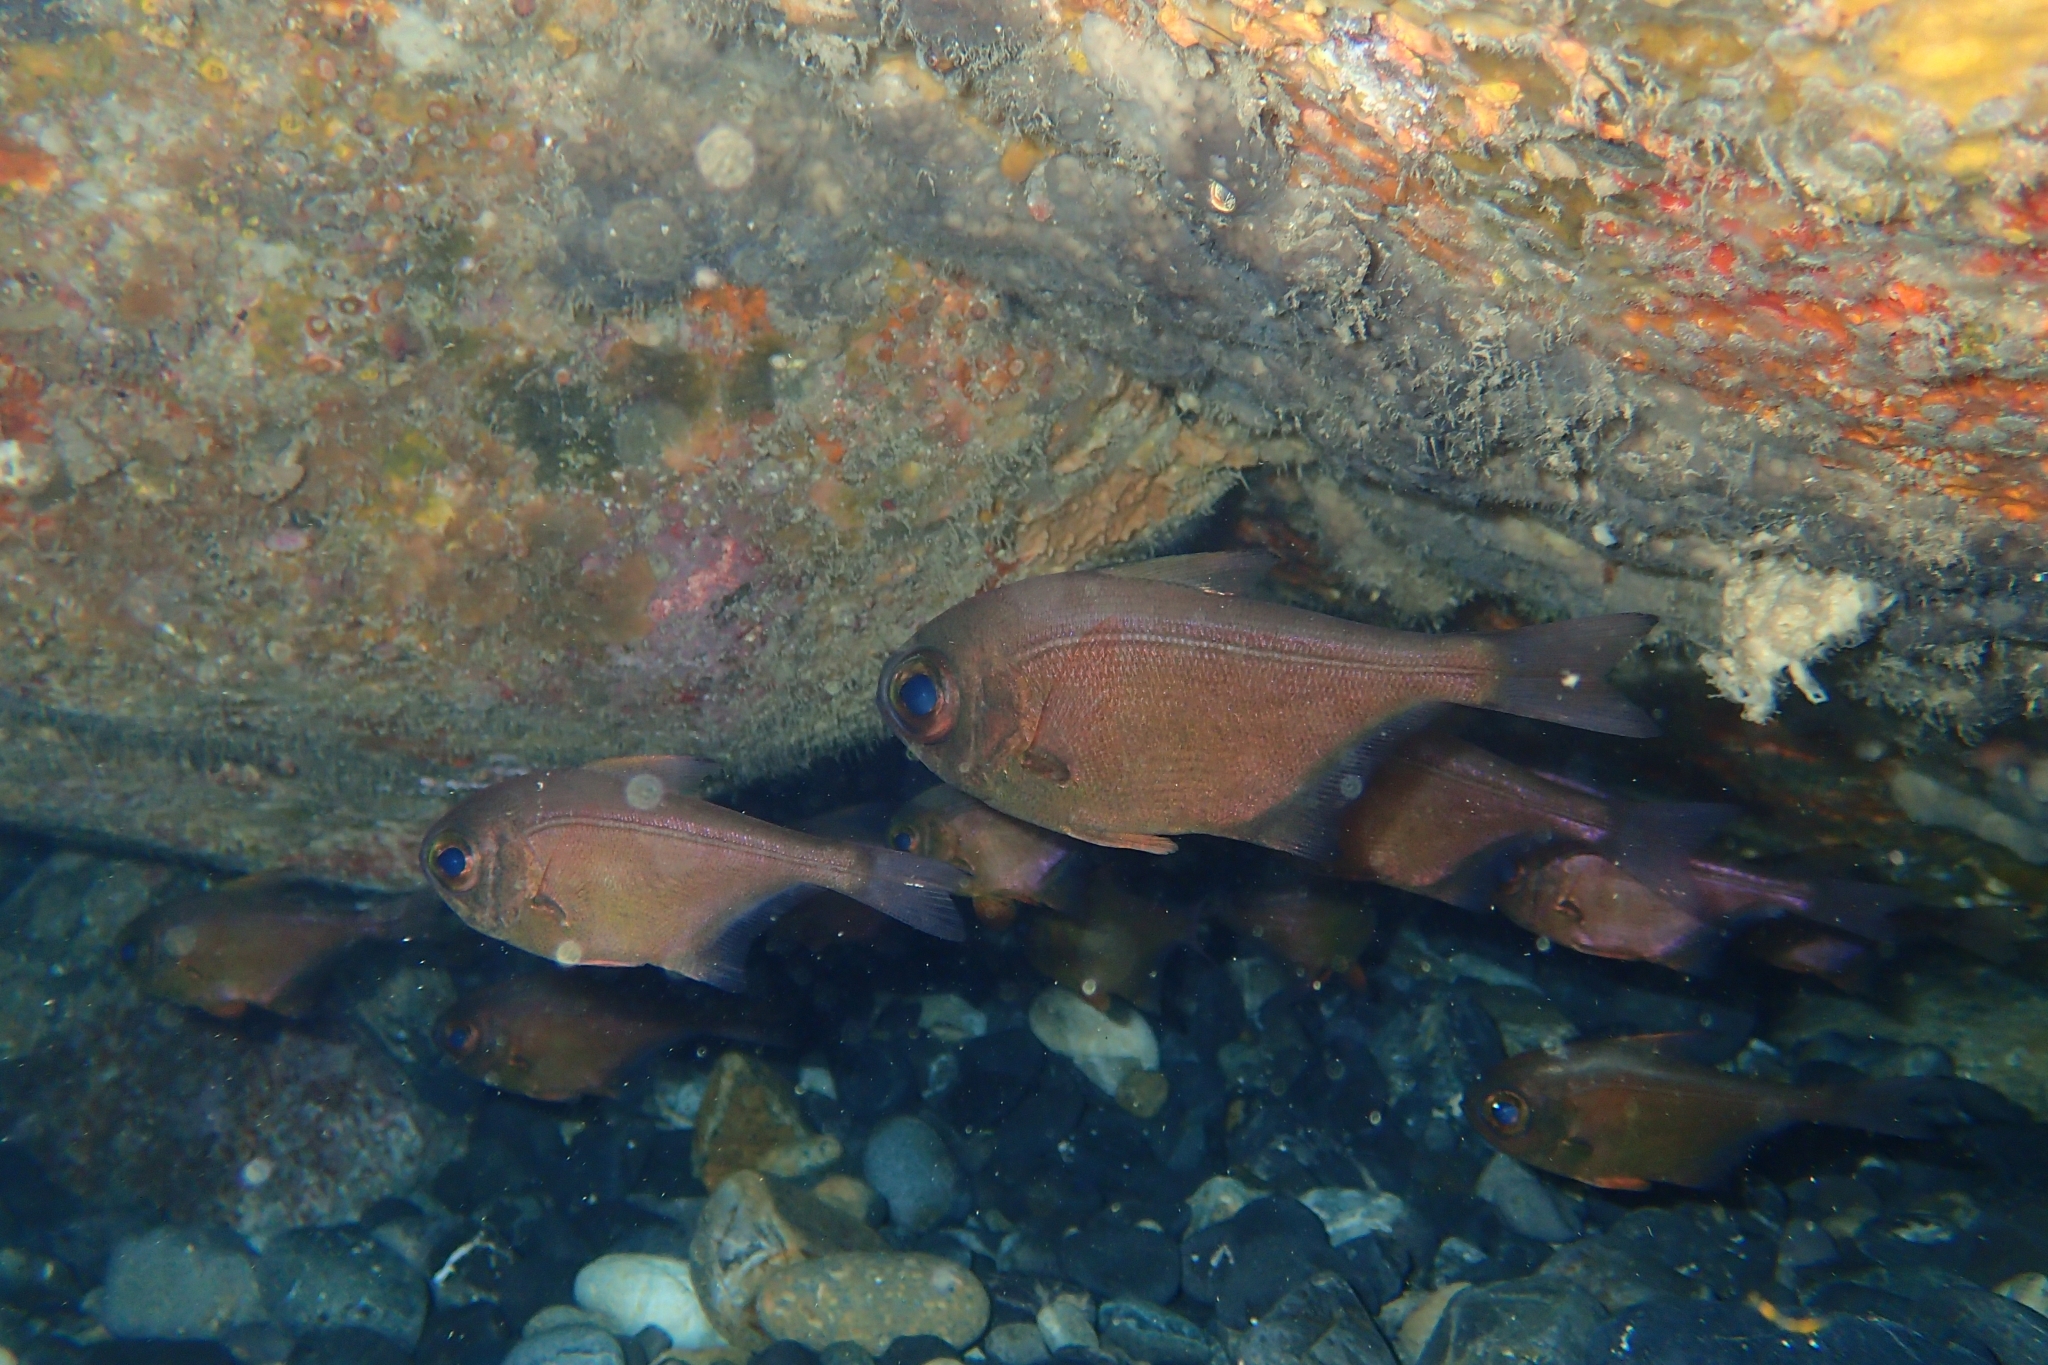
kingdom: Animalia
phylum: Chordata
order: Perciformes
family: Pempheridae
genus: Pempheris
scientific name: Pempheris adspersa
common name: Bigeye
